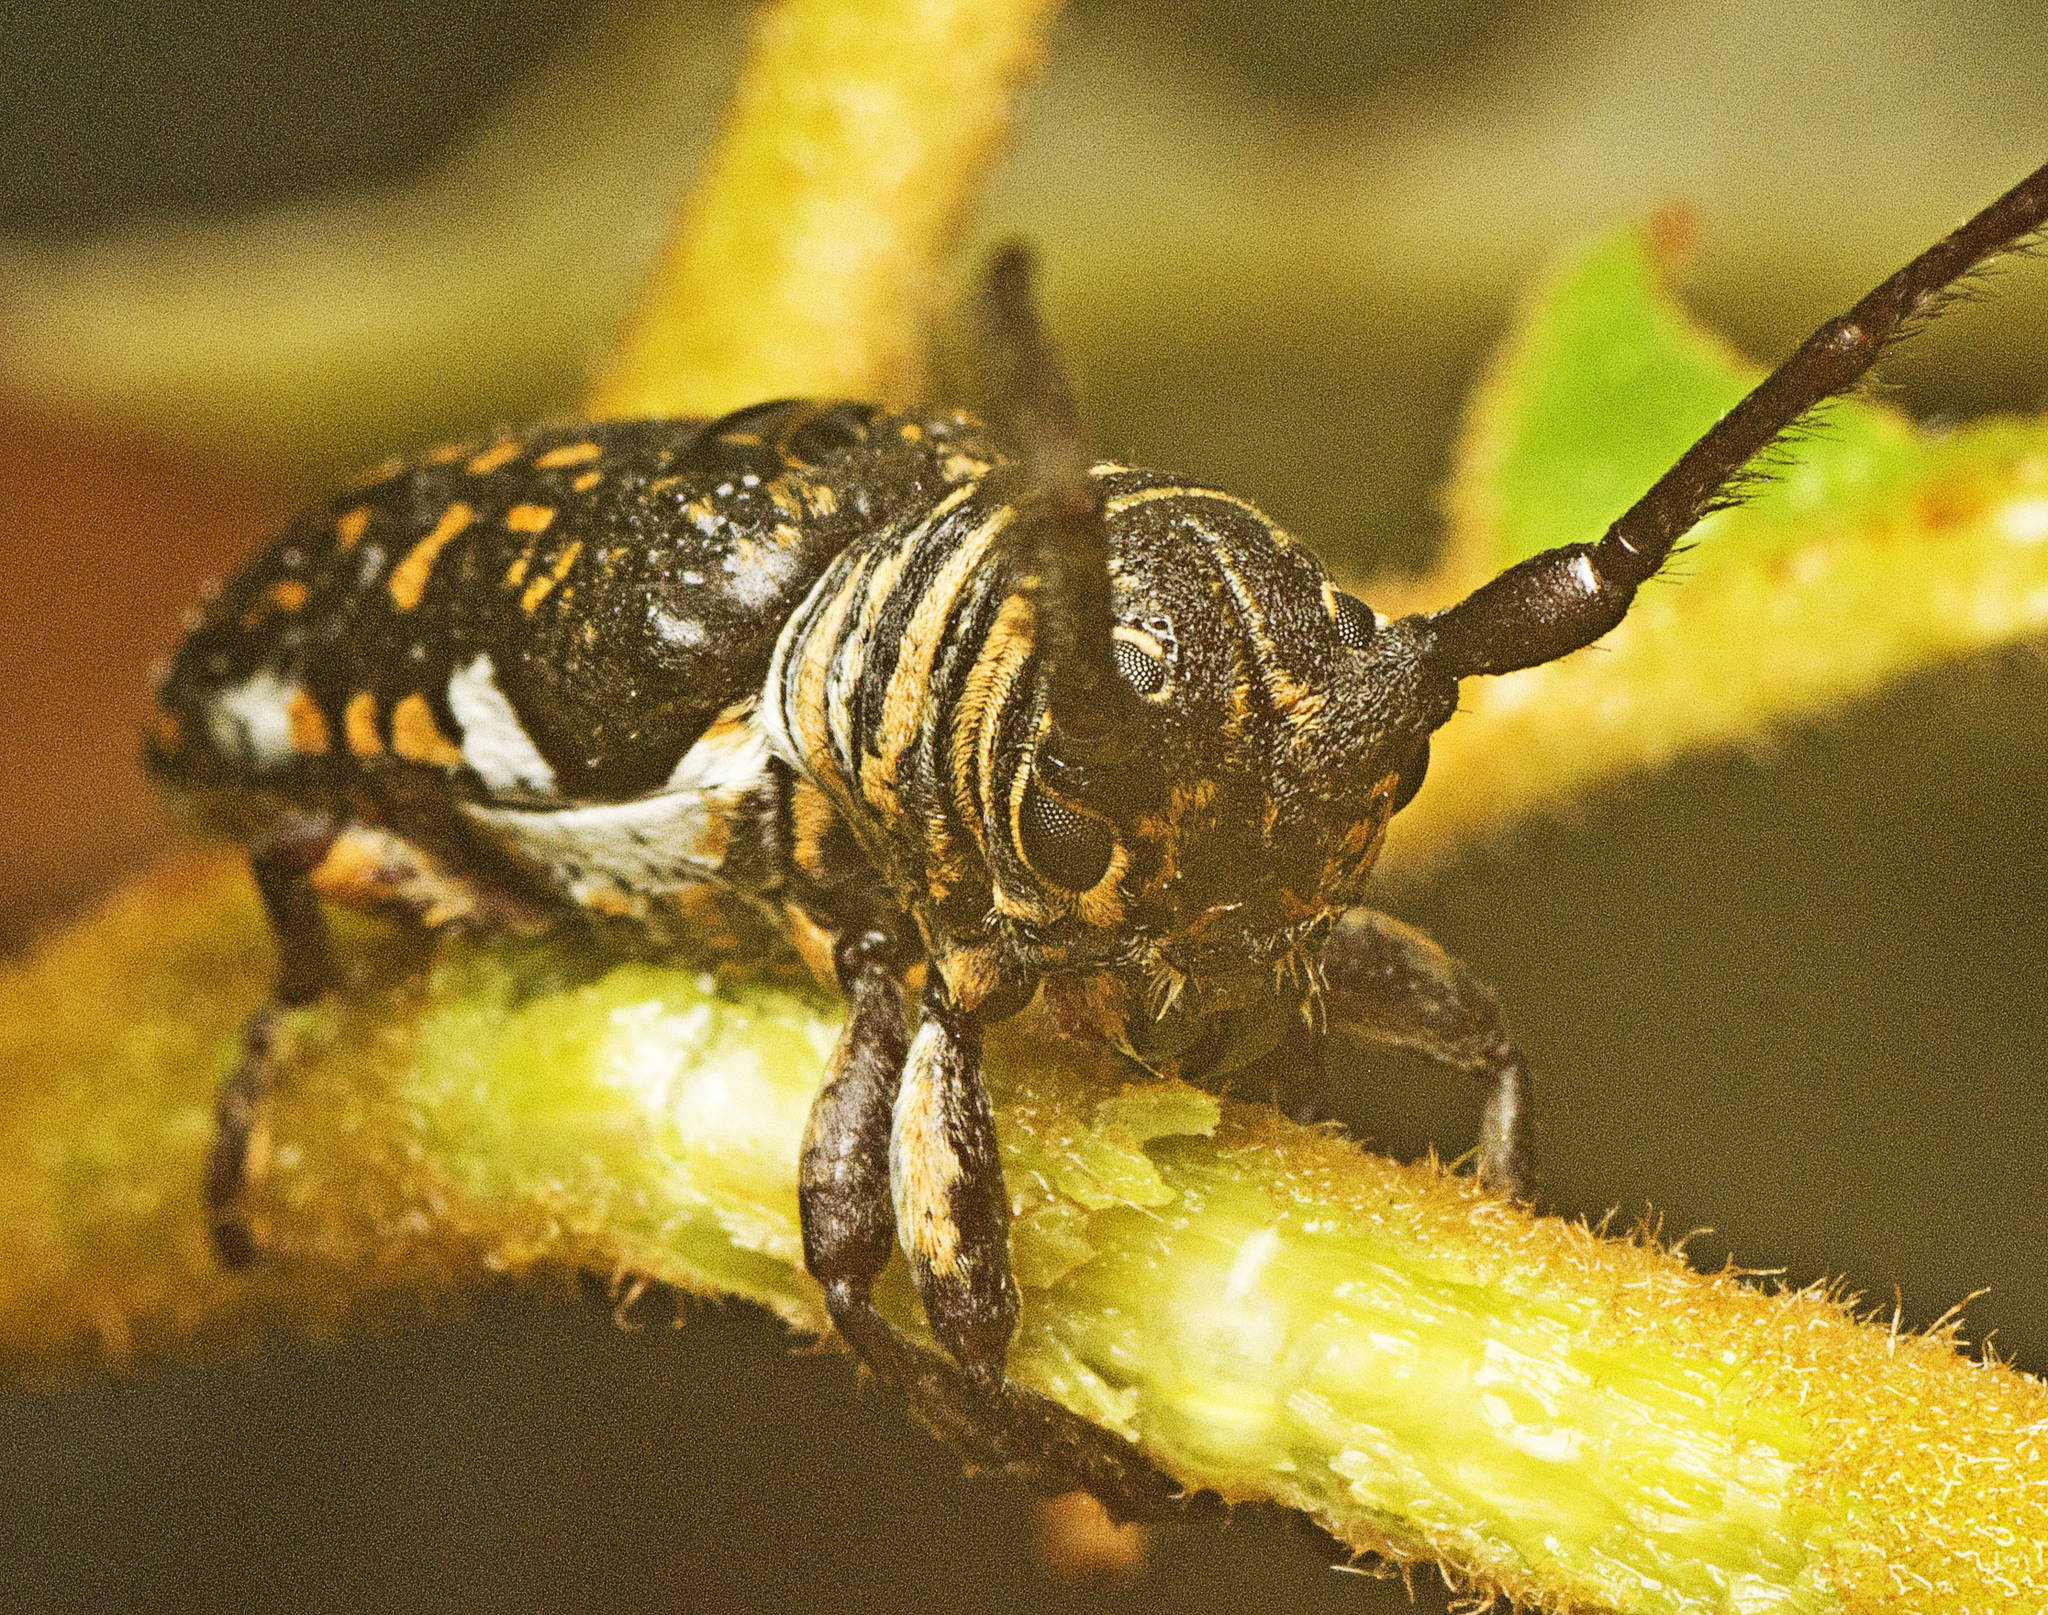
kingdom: Animalia
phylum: Arthropoda
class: Insecta
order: Coleoptera
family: Cerambycidae
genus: Rhytiphora
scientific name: Rhytiphora vestigialis
